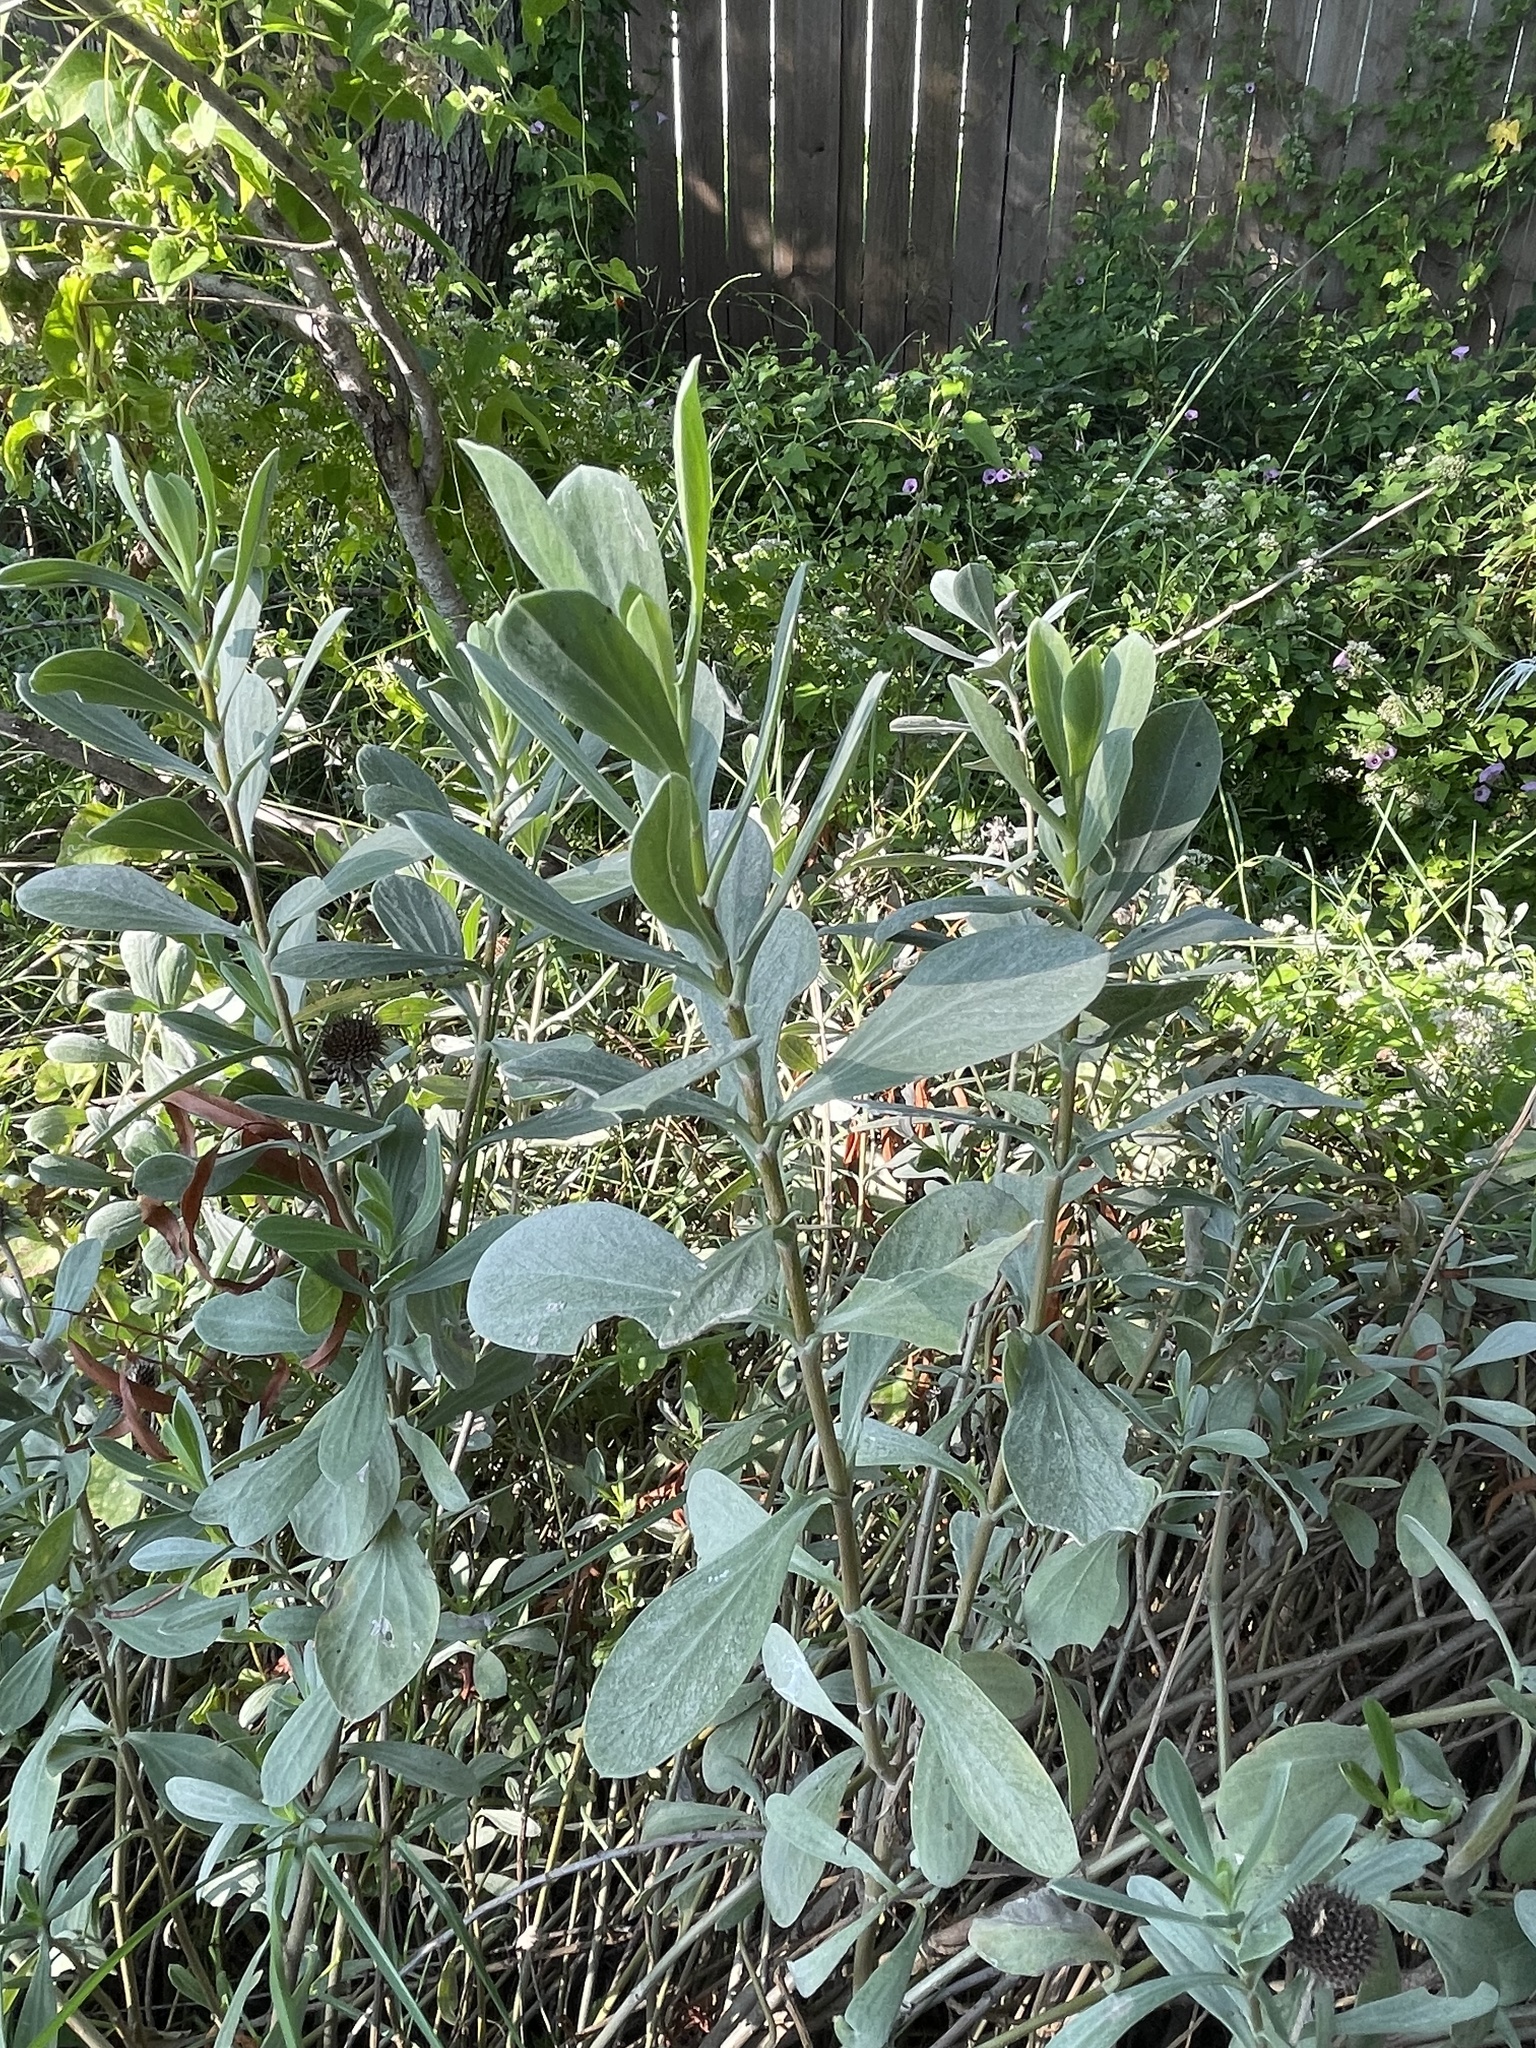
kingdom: Plantae
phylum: Tracheophyta
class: Magnoliopsida
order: Asterales
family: Asteraceae
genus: Borrichia
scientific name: Borrichia frutescens
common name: Sea oxeye
